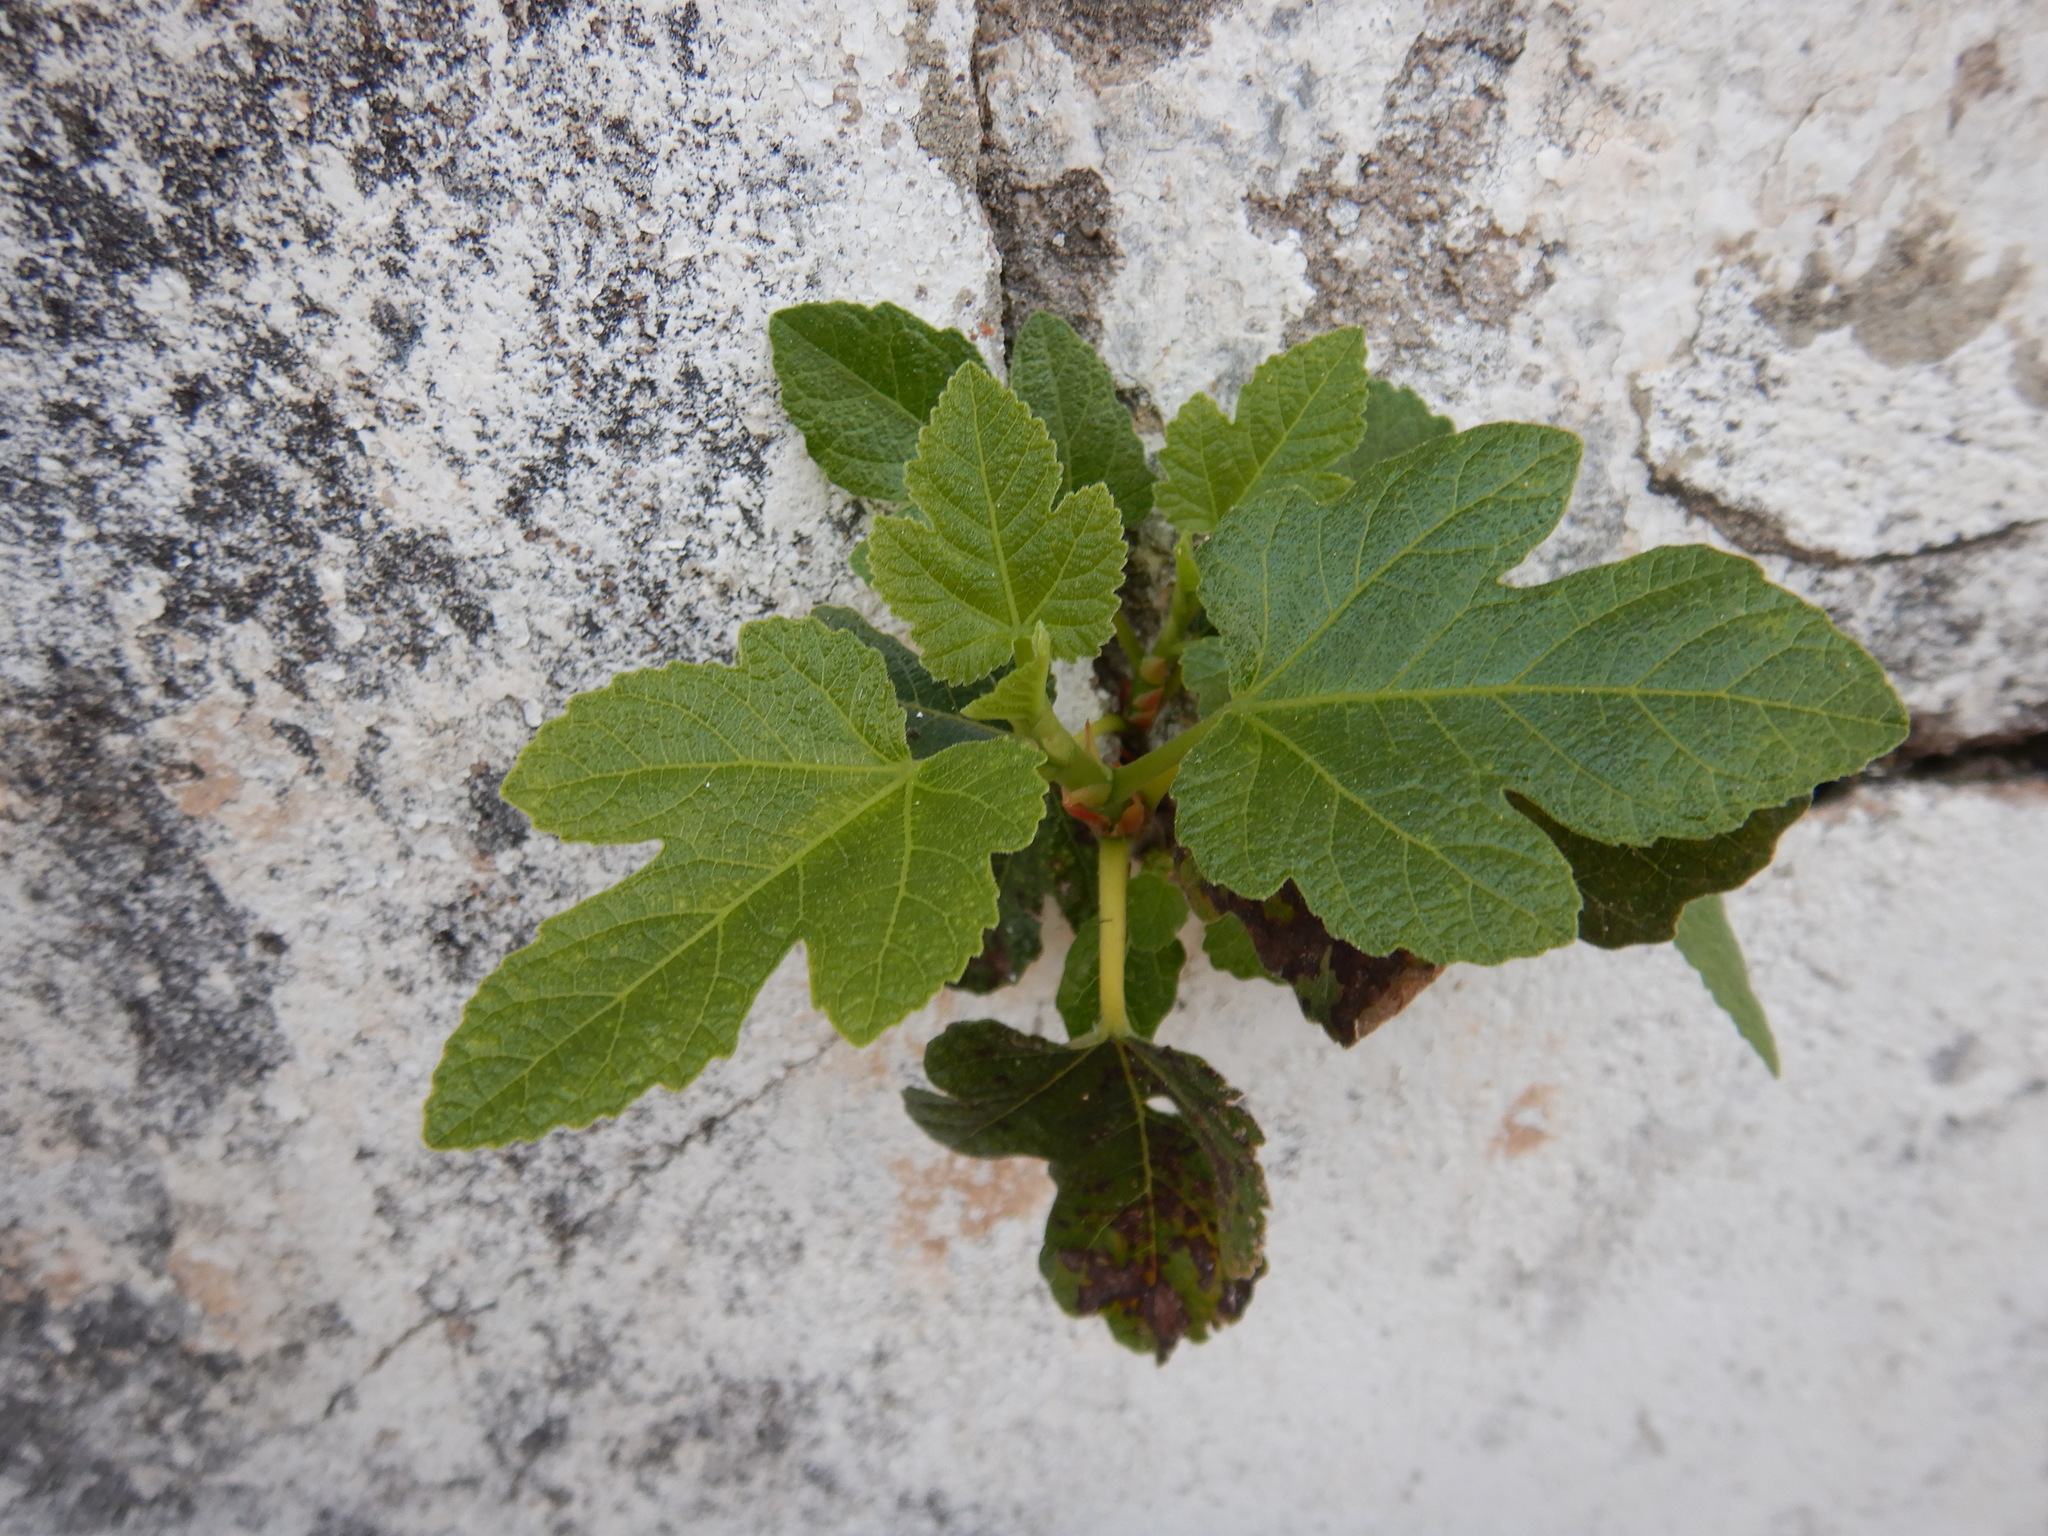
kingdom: Plantae
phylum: Tracheophyta
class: Magnoliopsida
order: Rosales
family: Moraceae
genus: Ficus
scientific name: Ficus carica
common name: Fig
